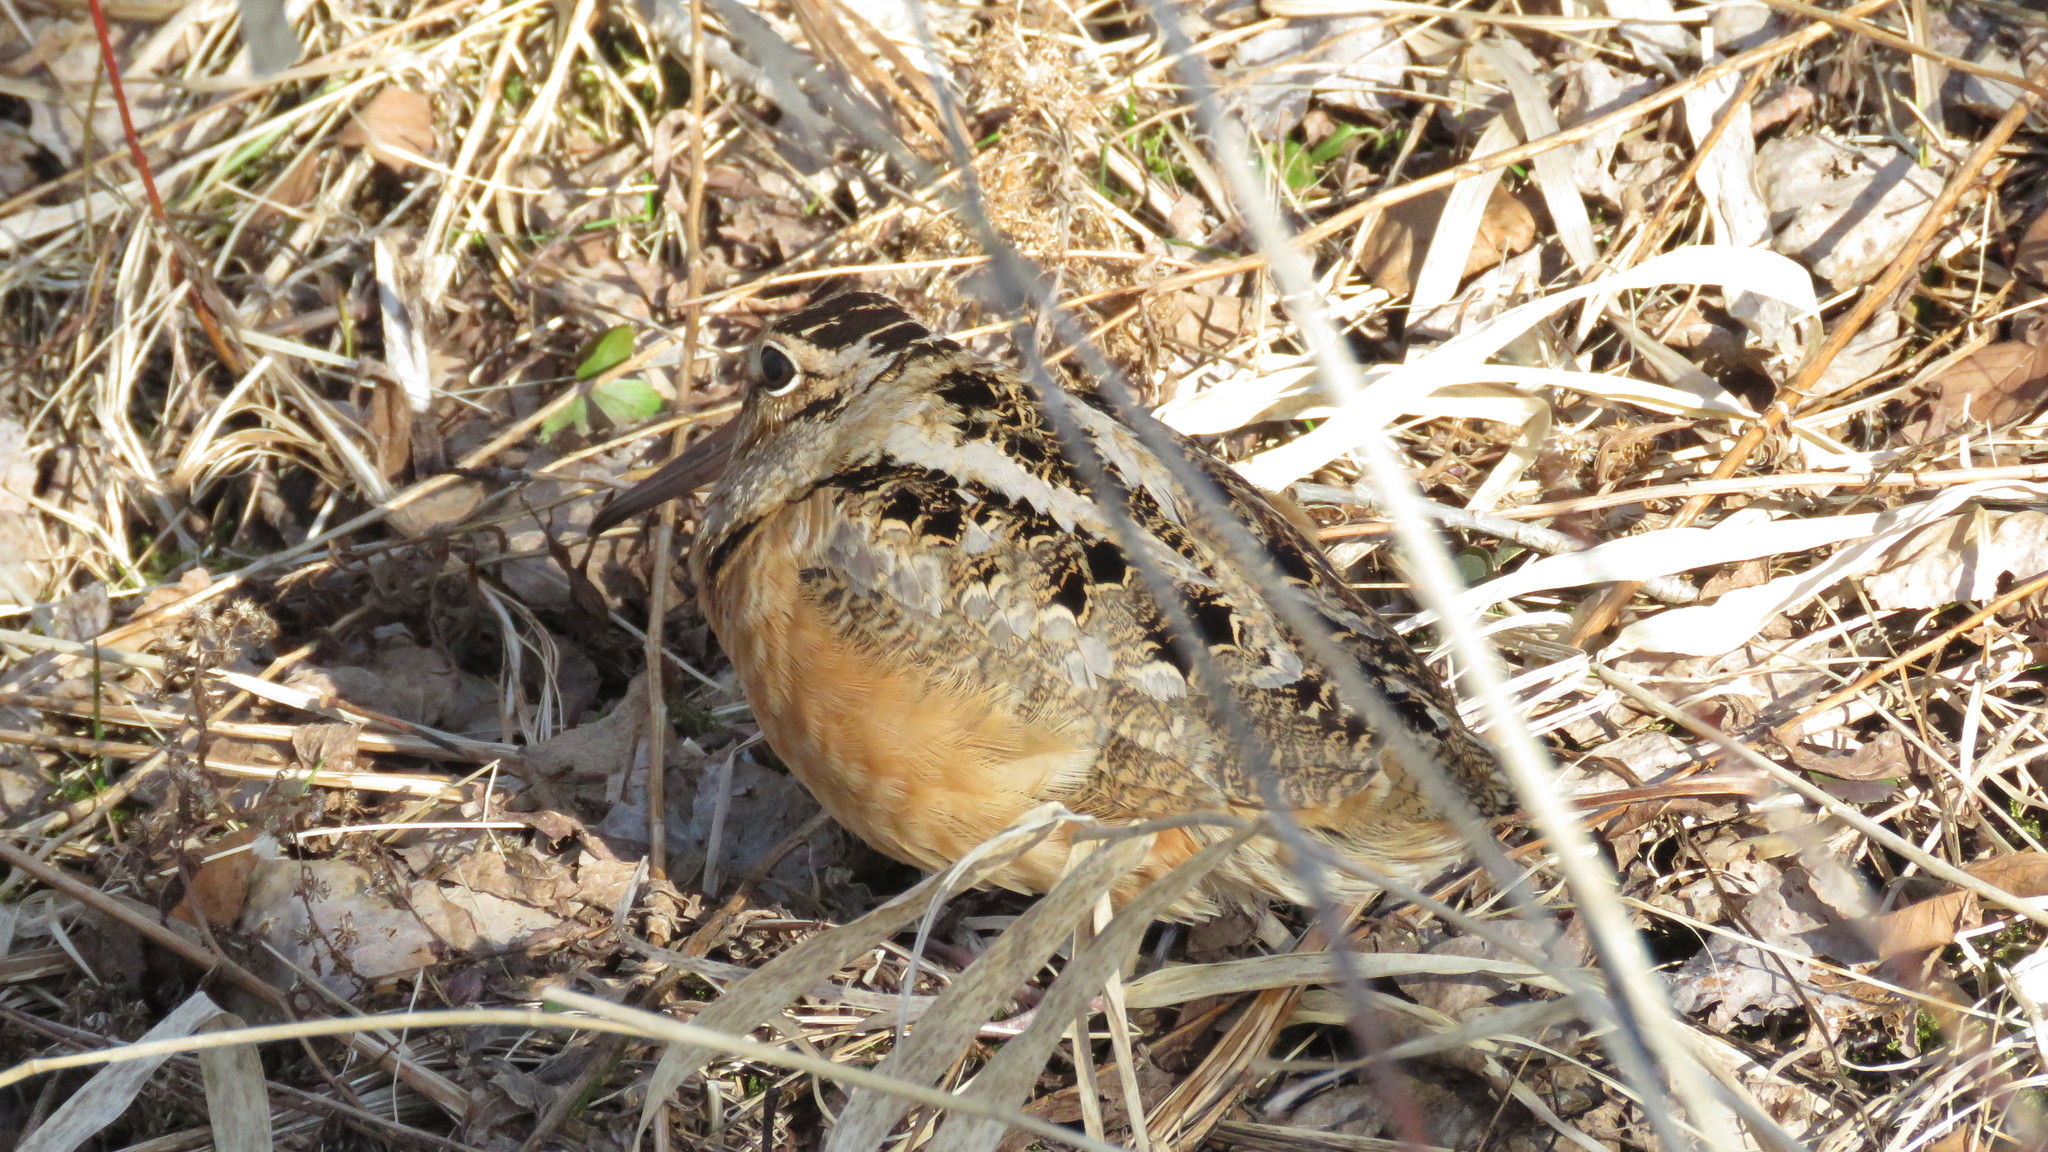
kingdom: Animalia
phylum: Chordata
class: Aves
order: Charadriiformes
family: Scolopacidae
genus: Scolopax
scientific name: Scolopax minor
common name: American woodcock
